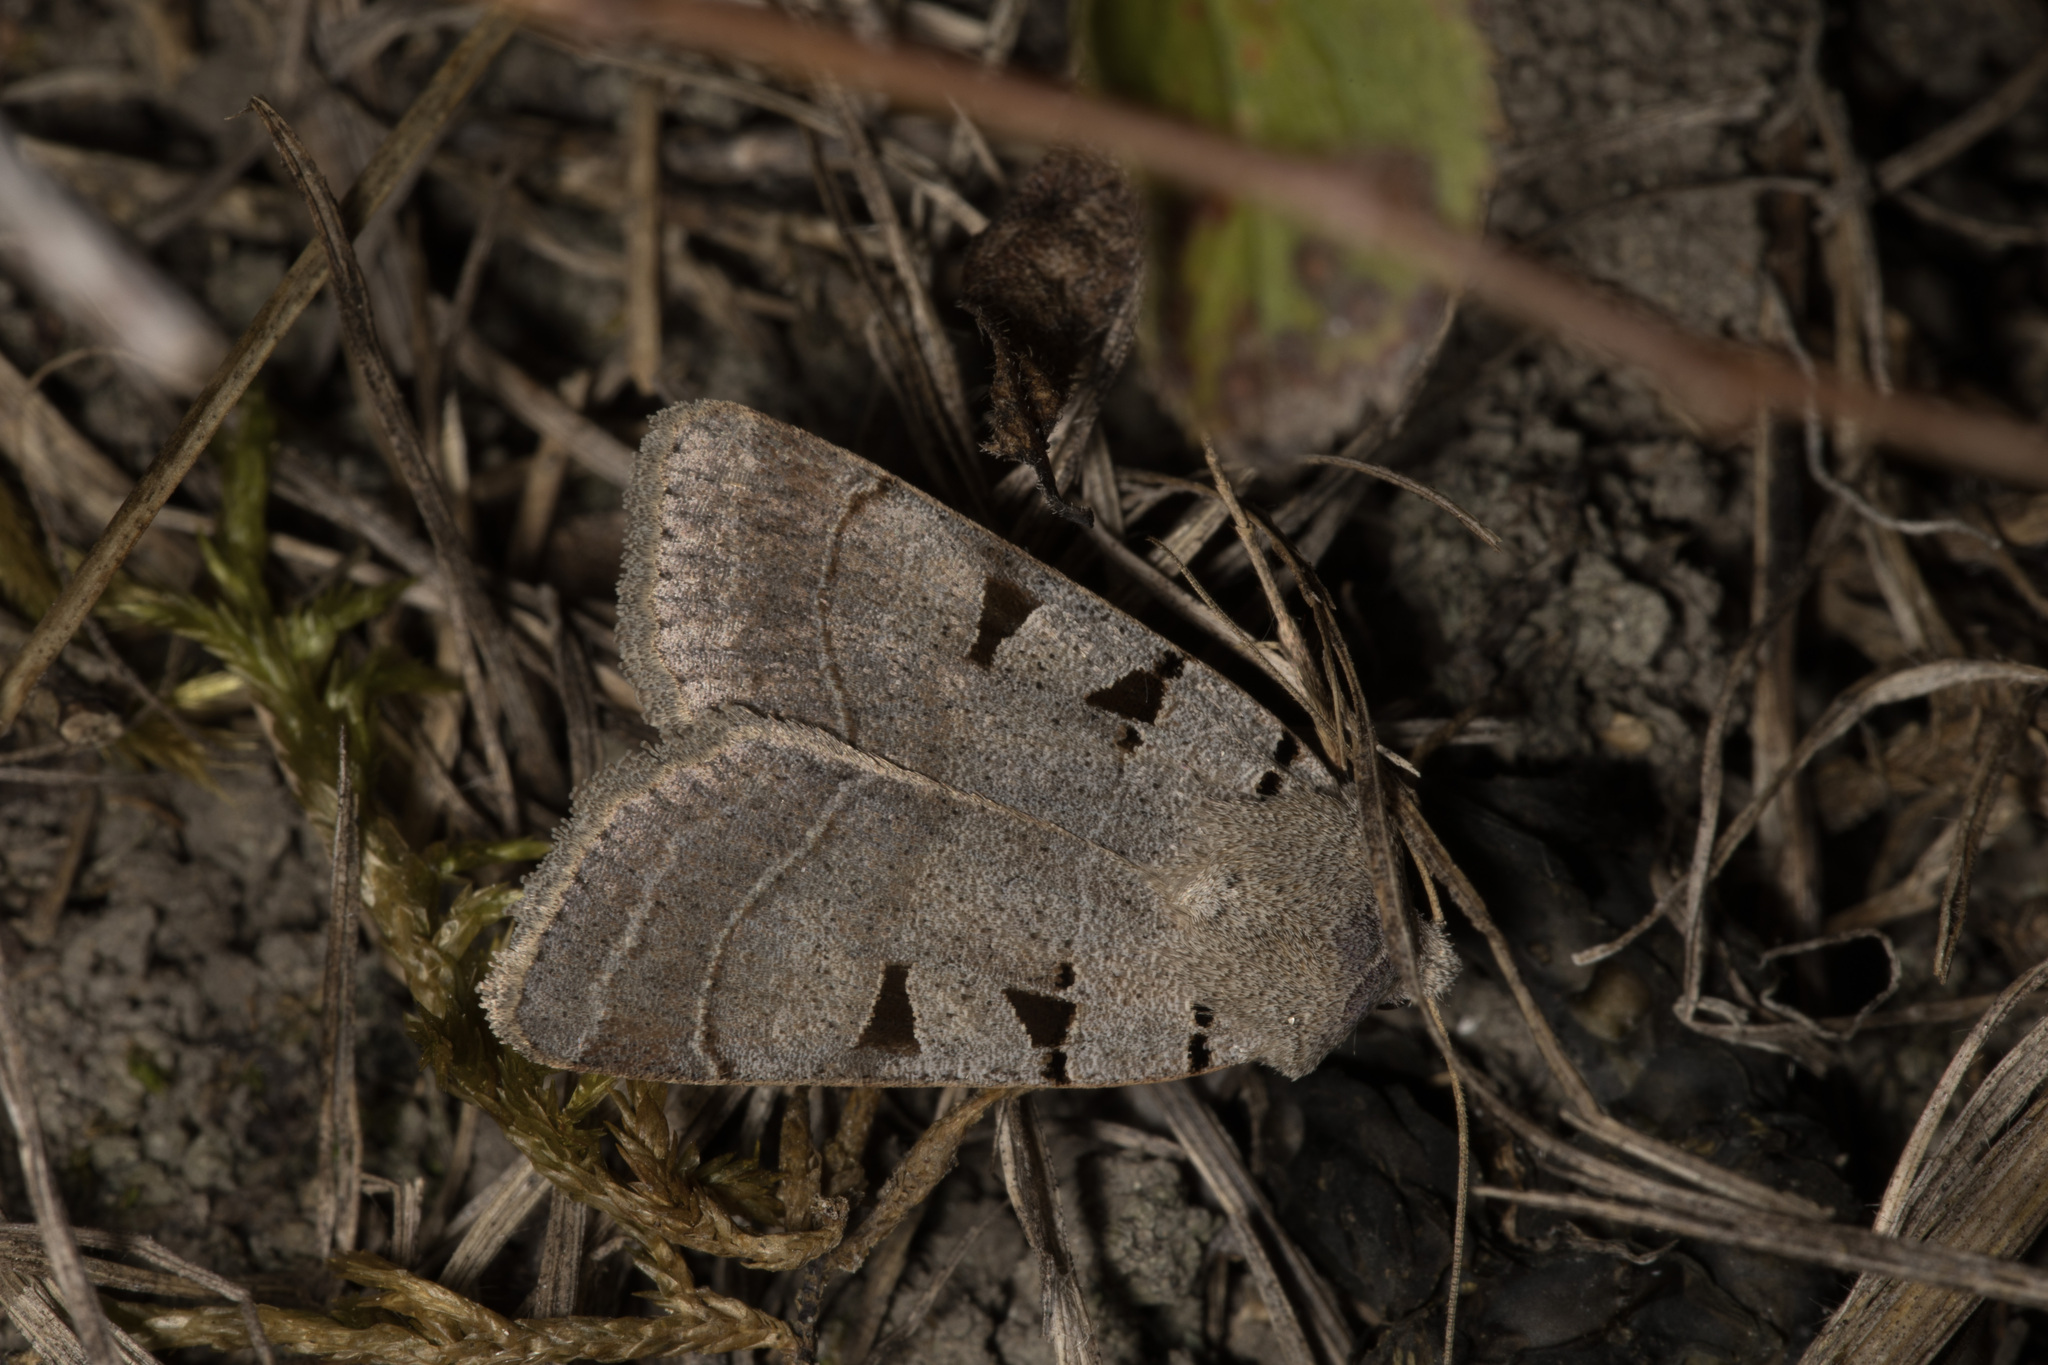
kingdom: Animalia
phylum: Arthropoda
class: Insecta
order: Lepidoptera
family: Noctuidae
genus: Eugnorisma
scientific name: Eugnorisma glareosa
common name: Autumnal rustic
